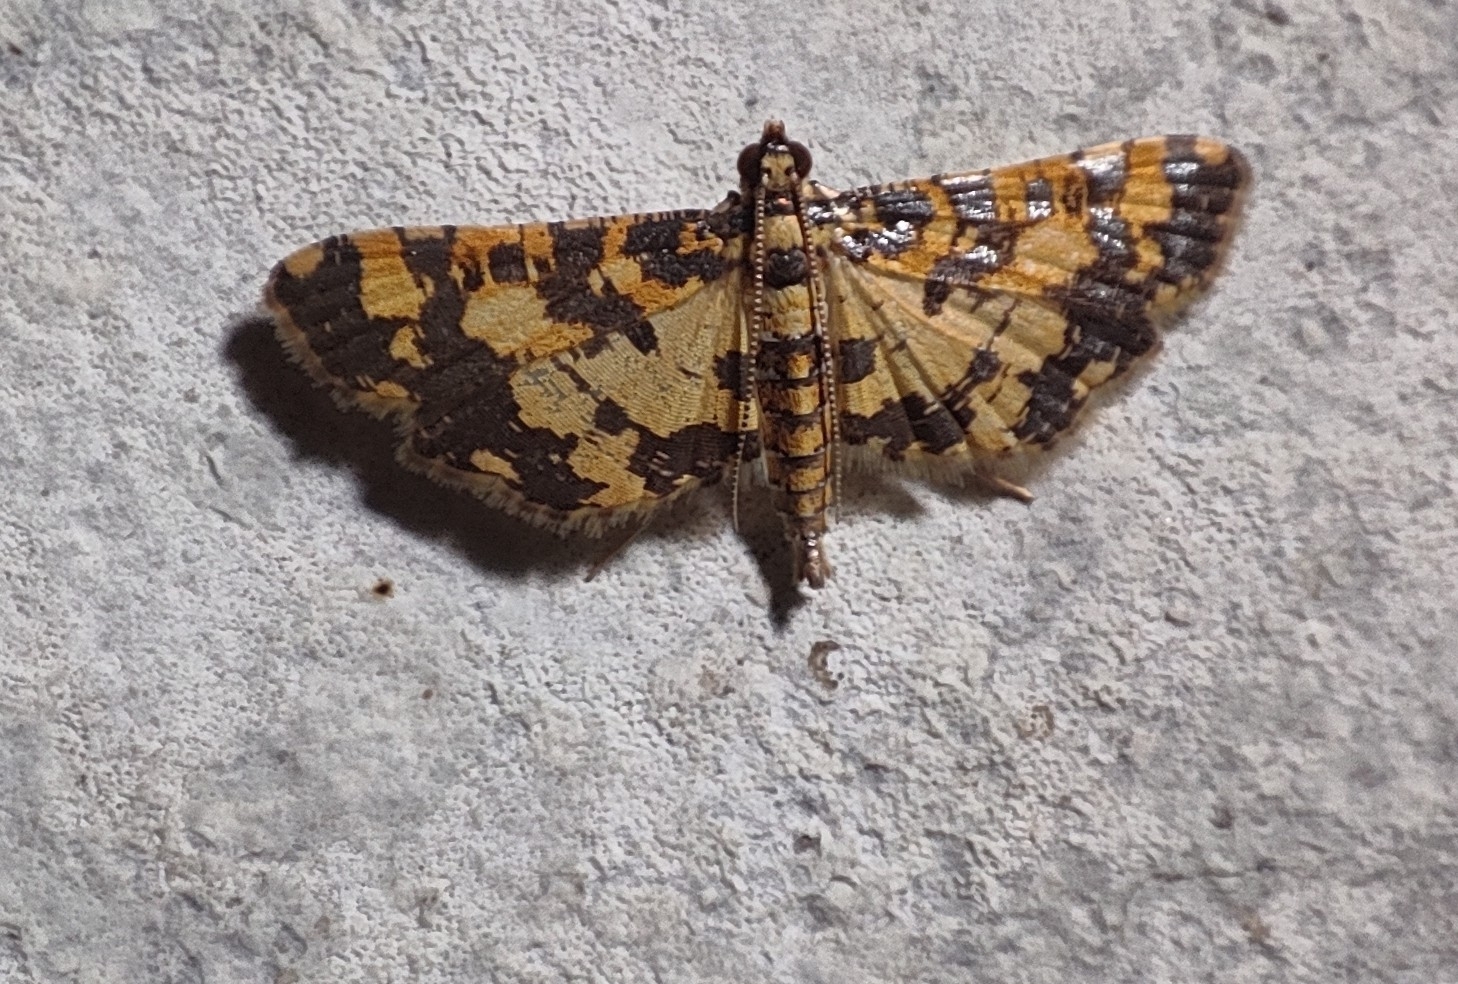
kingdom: Animalia
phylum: Arthropoda
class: Insecta
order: Lepidoptera
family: Crambidae
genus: Eurrhyparodes
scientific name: Eurrhyparodes tricoloralis
